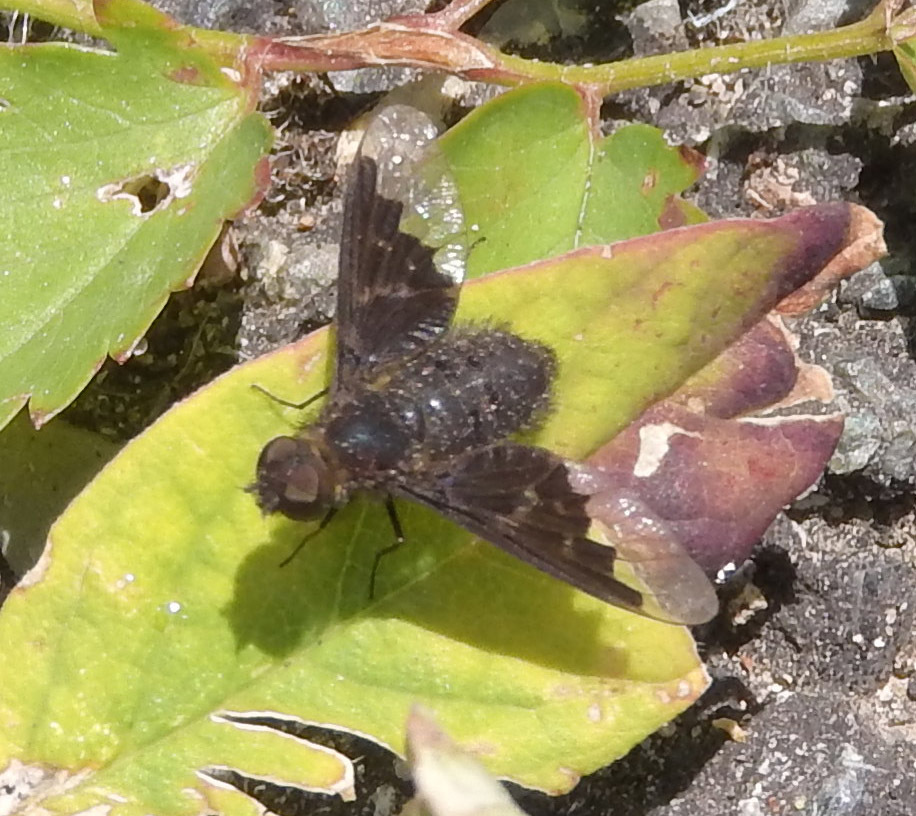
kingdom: Animalia
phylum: Arthropoda
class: Insecta
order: Diptera
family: Bombyliidae
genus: Hemipenthes
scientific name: Hemipenthes morio
